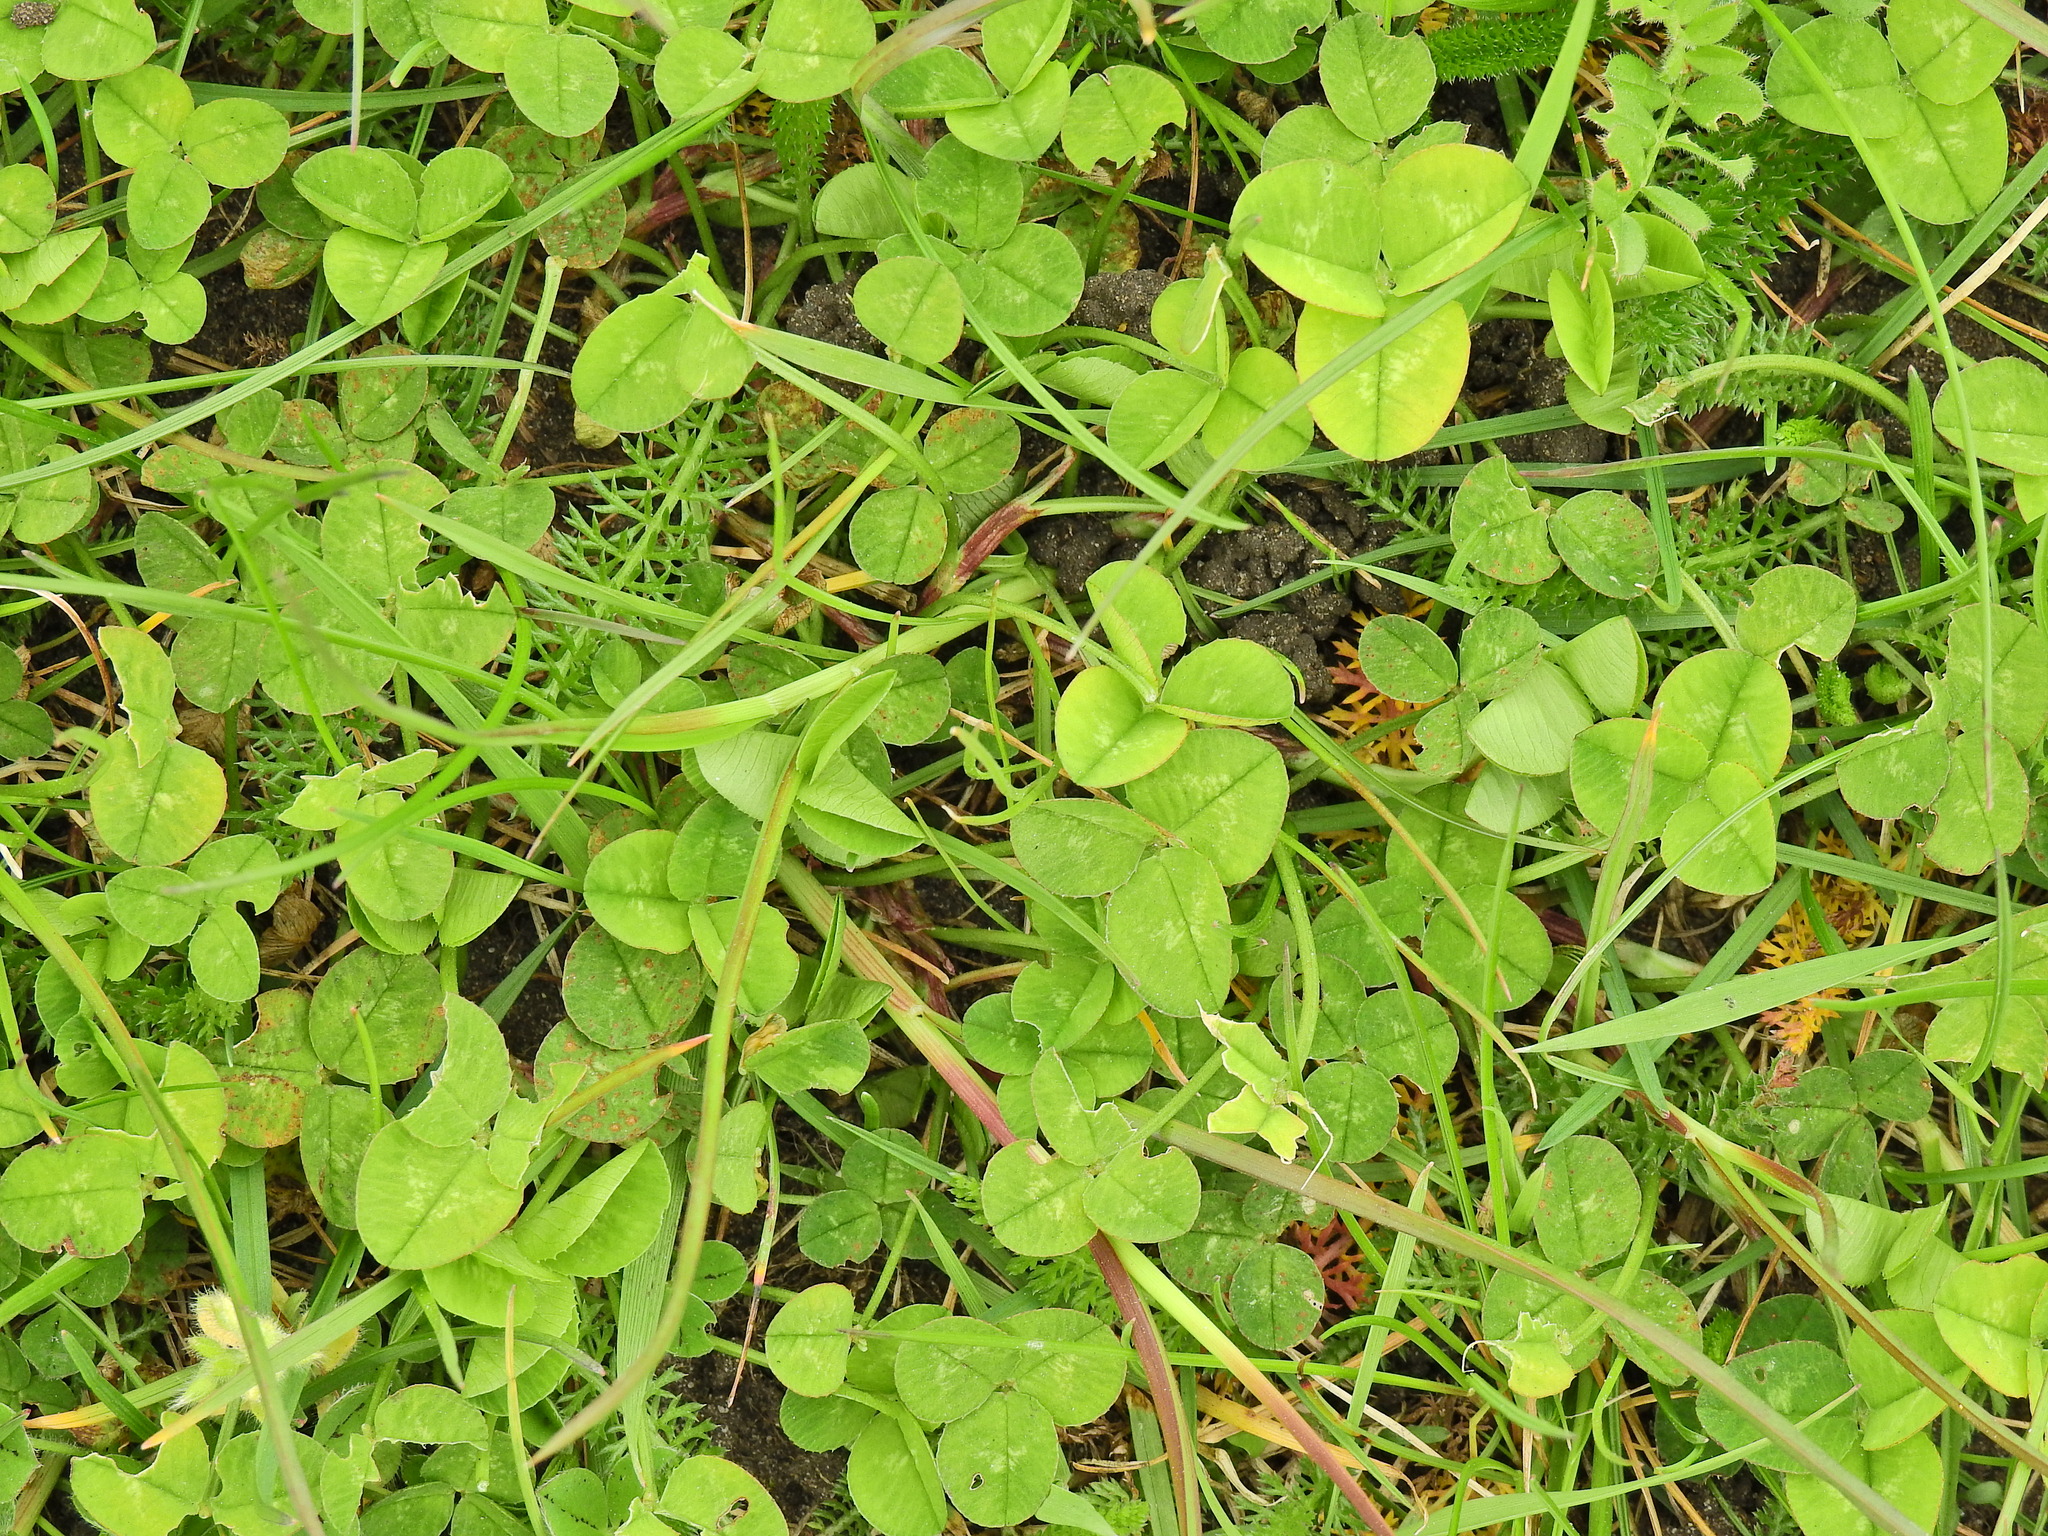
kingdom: Plantae
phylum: Tracheophyta
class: Magnoliopsida
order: Fabales
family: Fabaceae
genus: Trifolium
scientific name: Trifolium repens
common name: White clover
